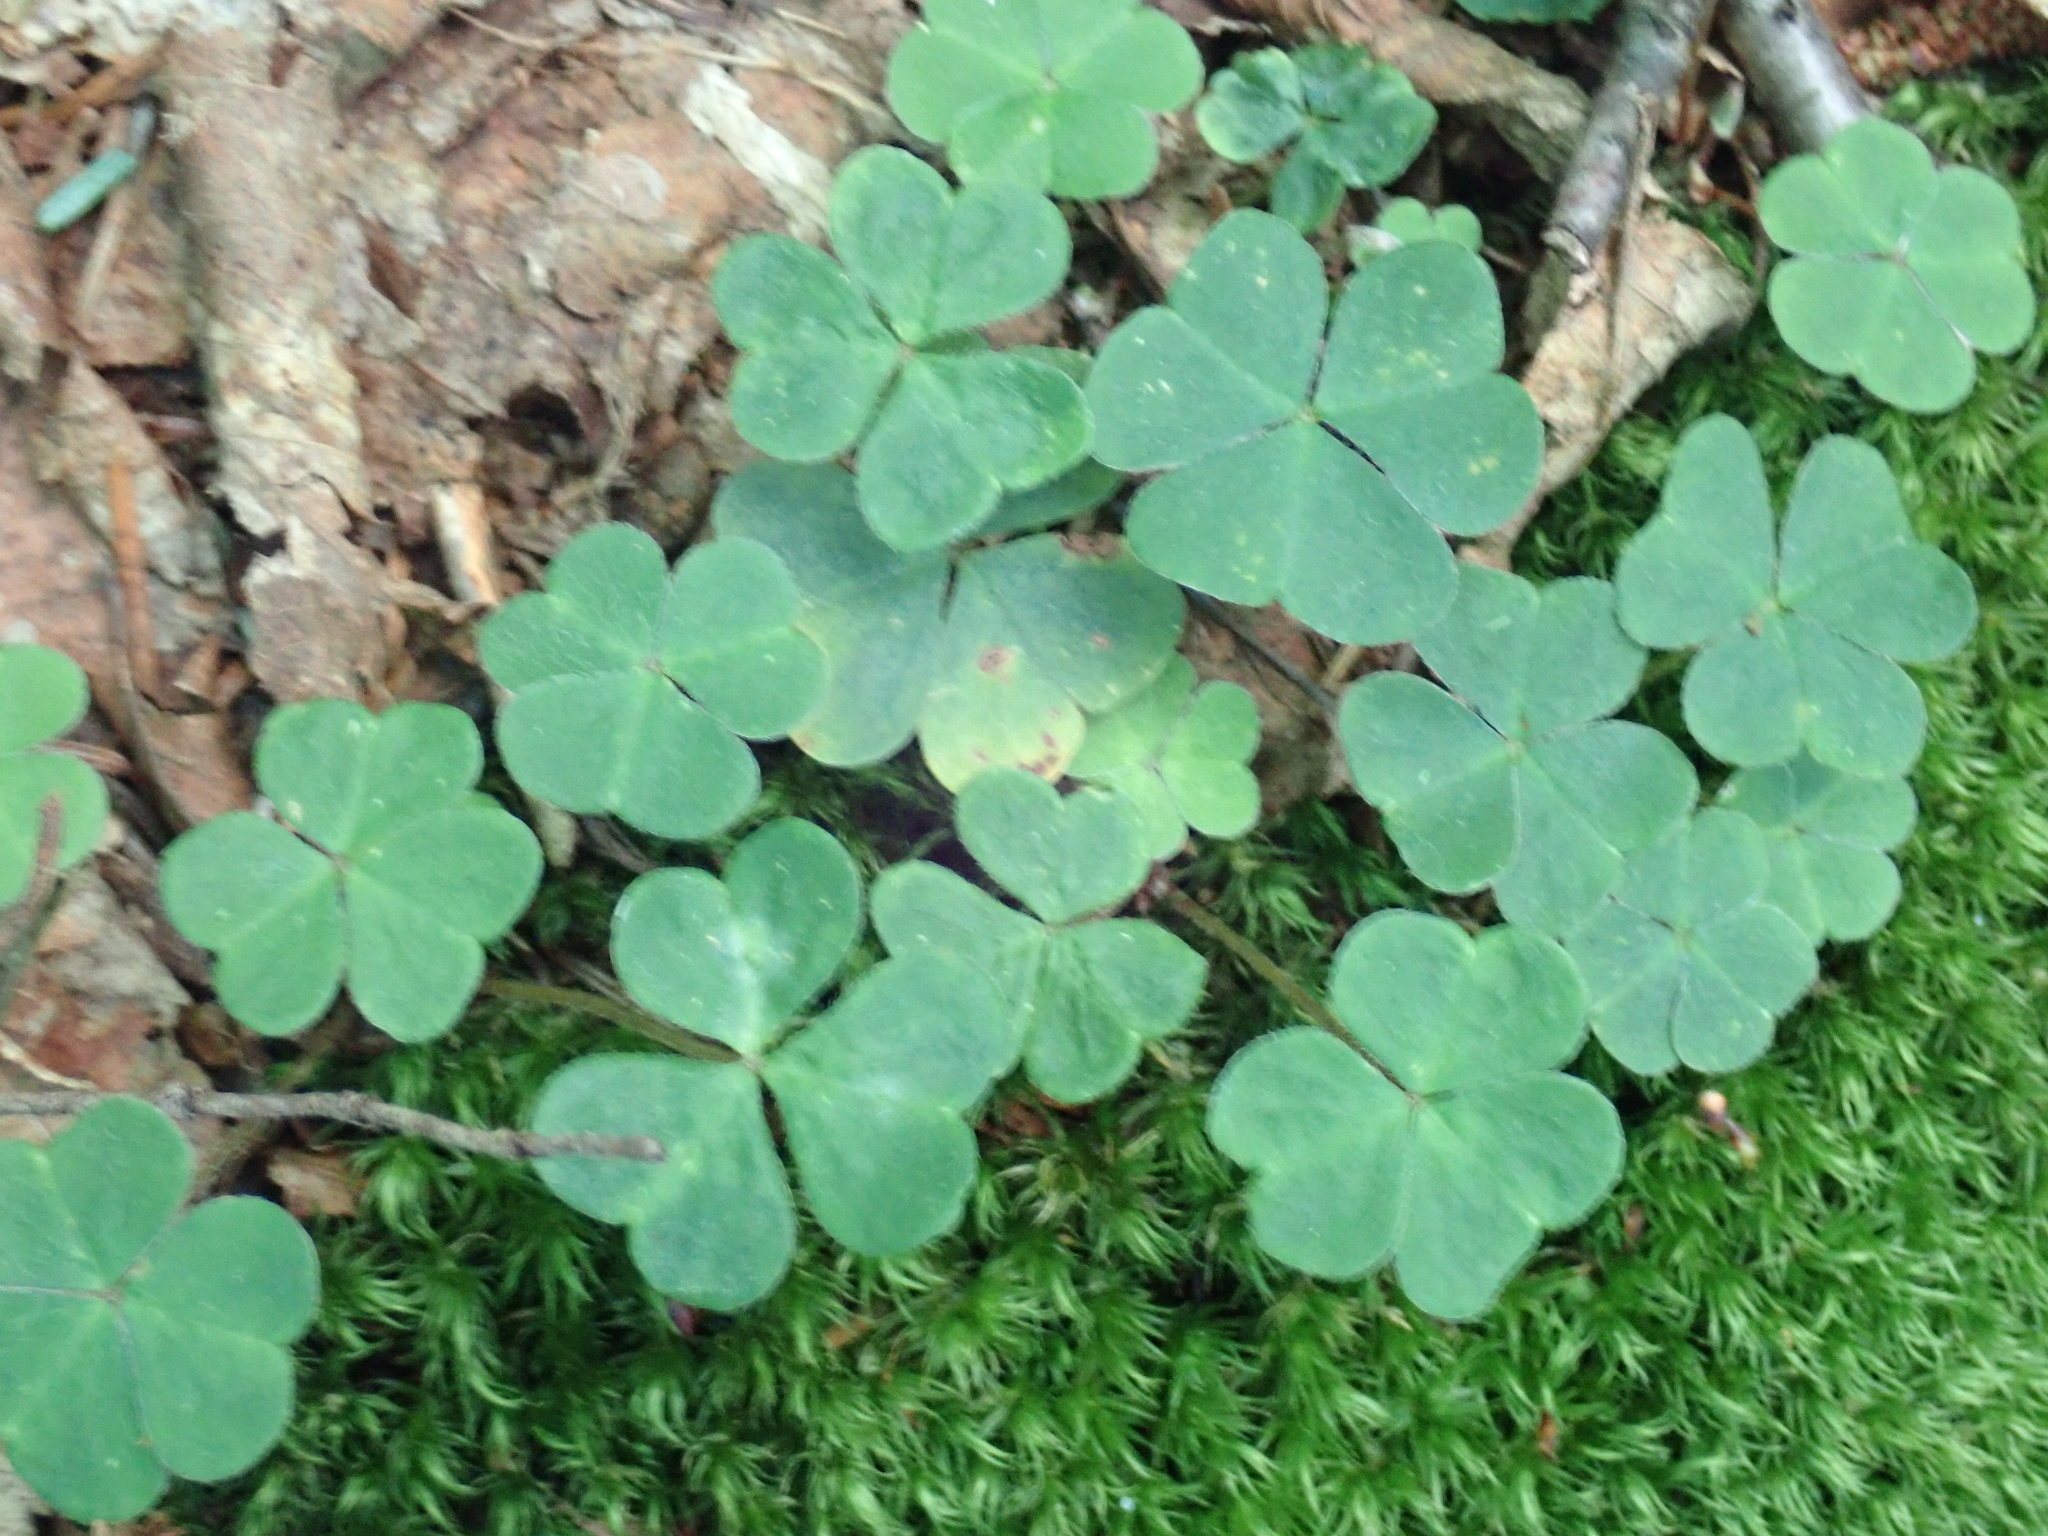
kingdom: Plantae
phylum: Tracheophyta
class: Magnoliopsida
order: Oxalidales
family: Oxalidaceae
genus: Oxalis
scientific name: Oxalis montana
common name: American wood-sorrel
